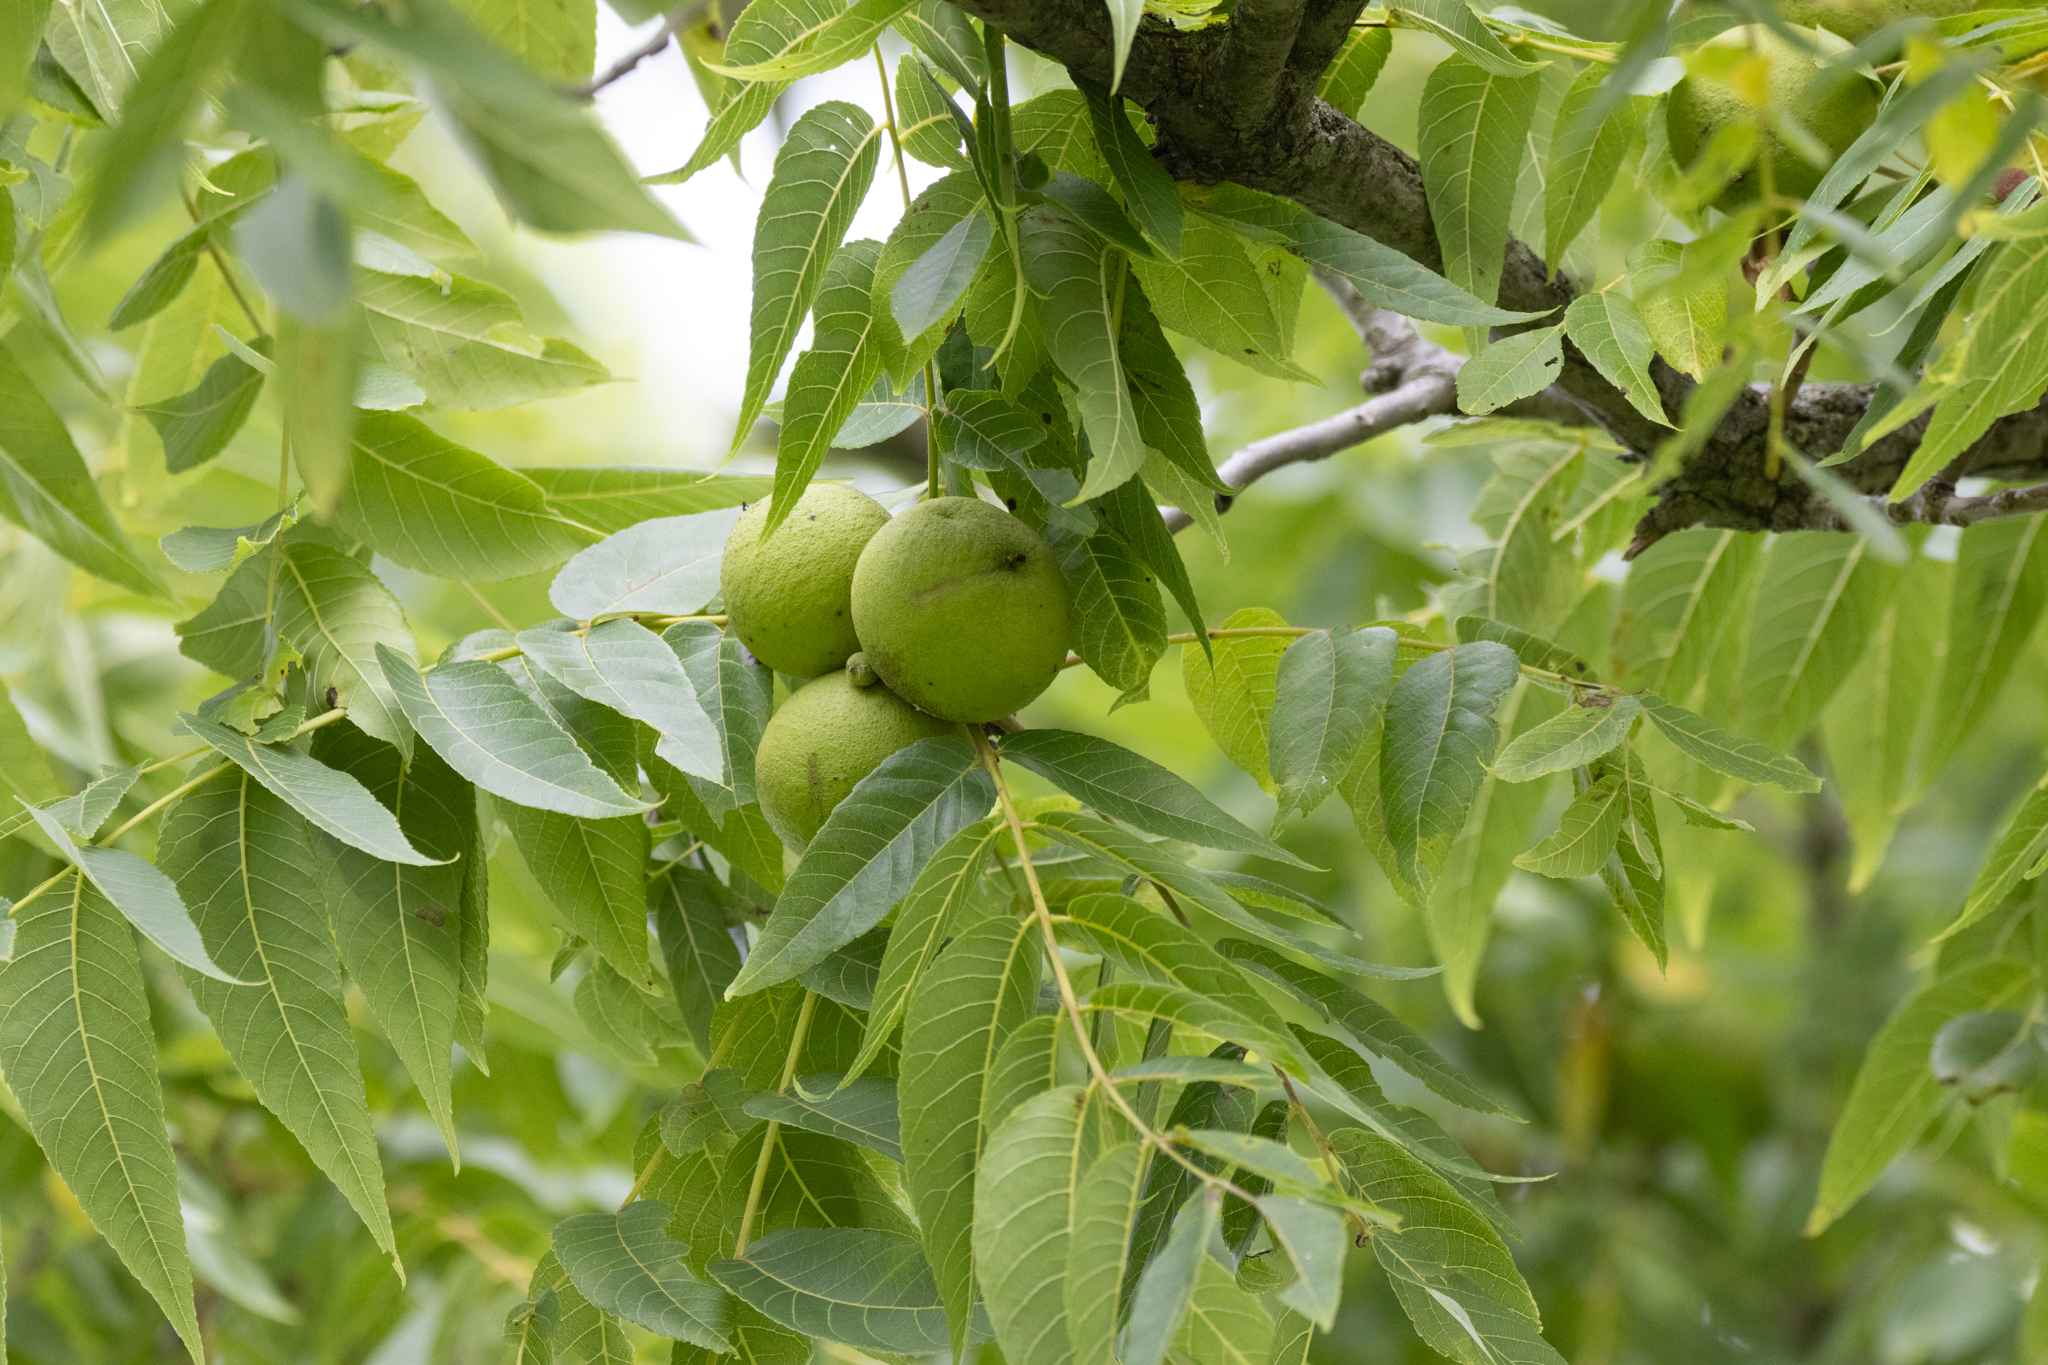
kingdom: Plantae
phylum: Tracheophyta
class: Magnoliopsida
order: Fagales
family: Juglandaceae
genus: Juglans
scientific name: Juglans nigra
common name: Black walnut
